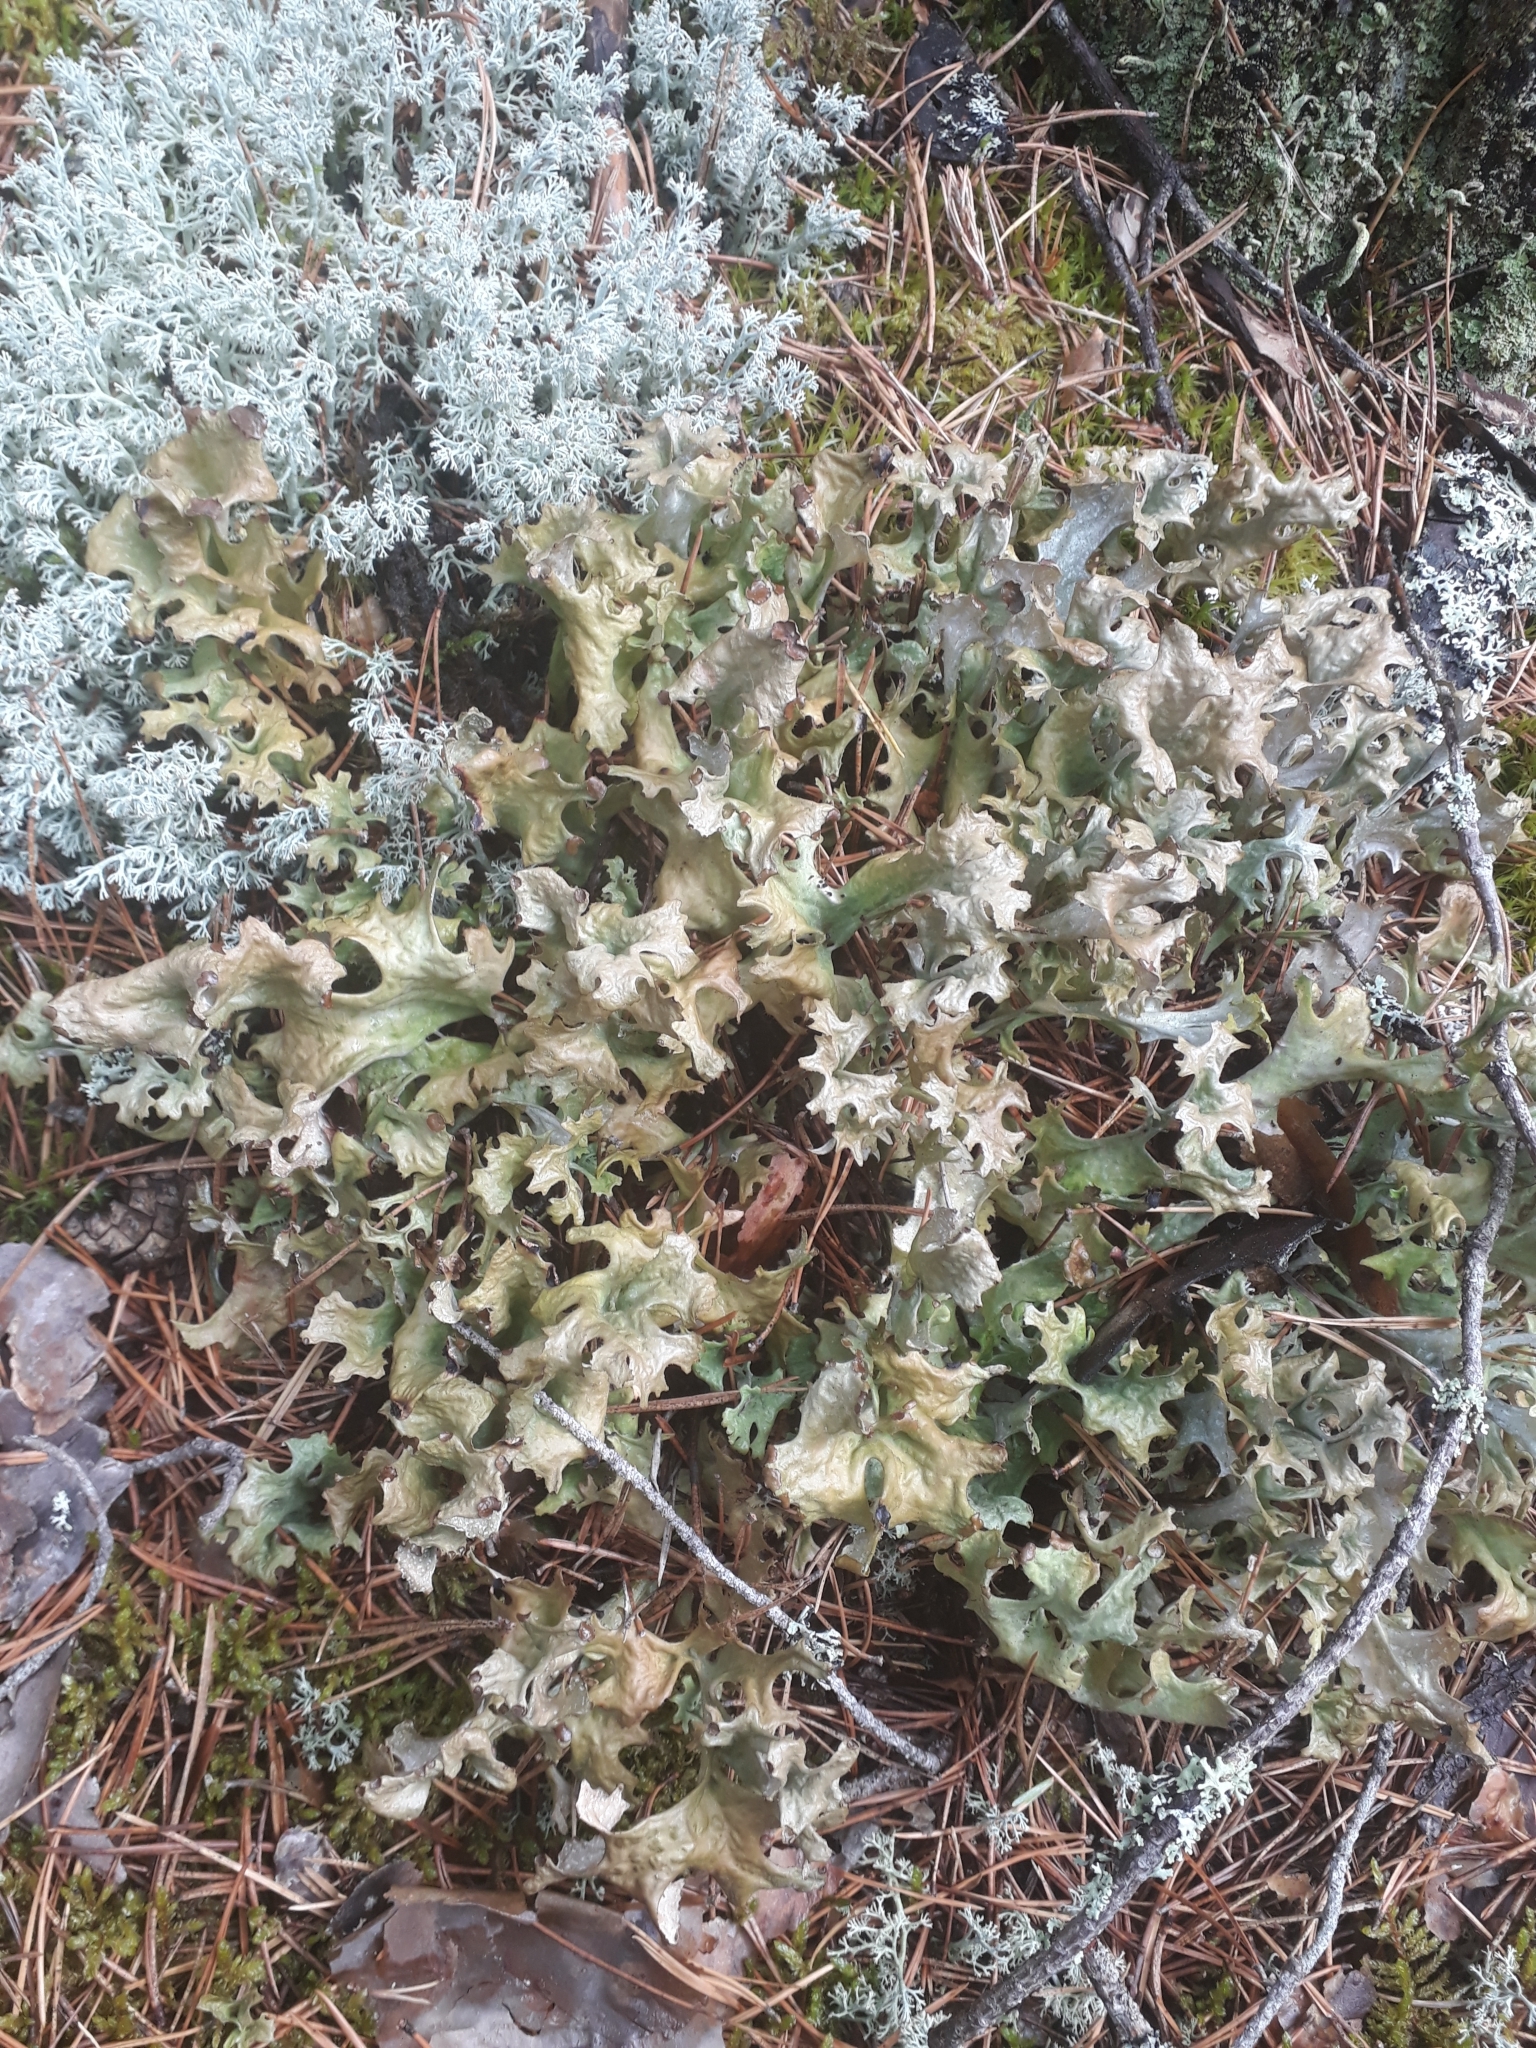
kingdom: Fungi
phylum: Ascomycota
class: Lecanoromycetes
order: Lecanorales
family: Parmeliaceae
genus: Cetraria
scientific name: Cetraria islandica
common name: Iceland lichen
